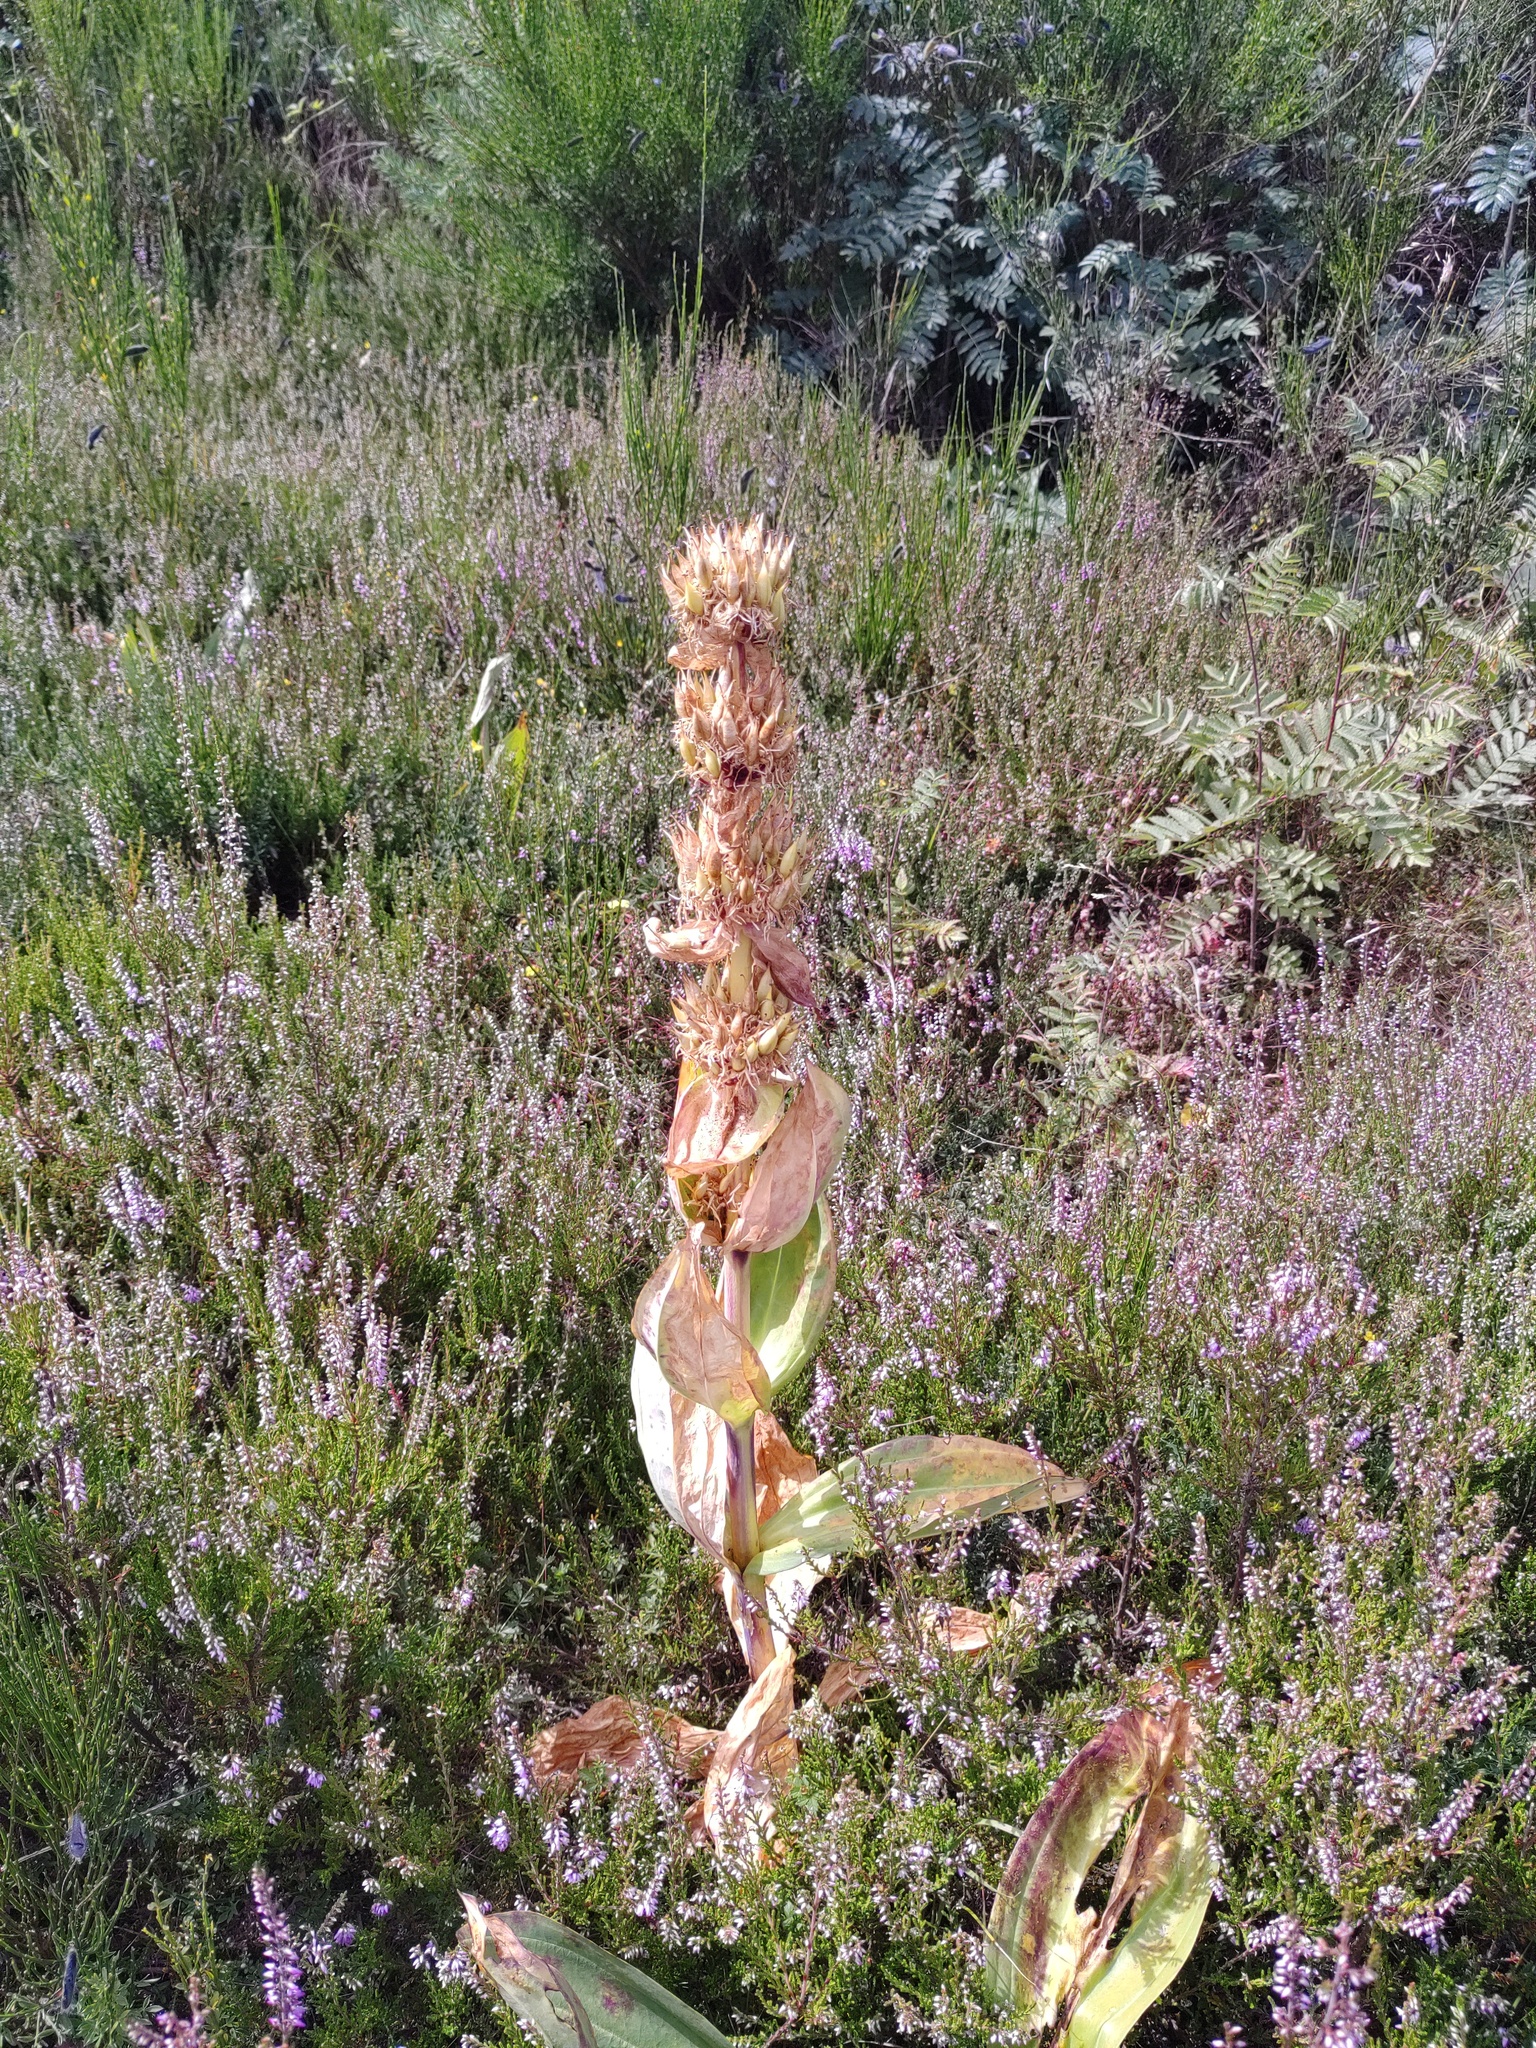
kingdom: Plantae
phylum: Tracheophyta
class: Magnoliopsida
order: Gentianales
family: Gentianaceae
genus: Gentiana
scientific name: Gentiana lutea
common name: Great yellow gentian
